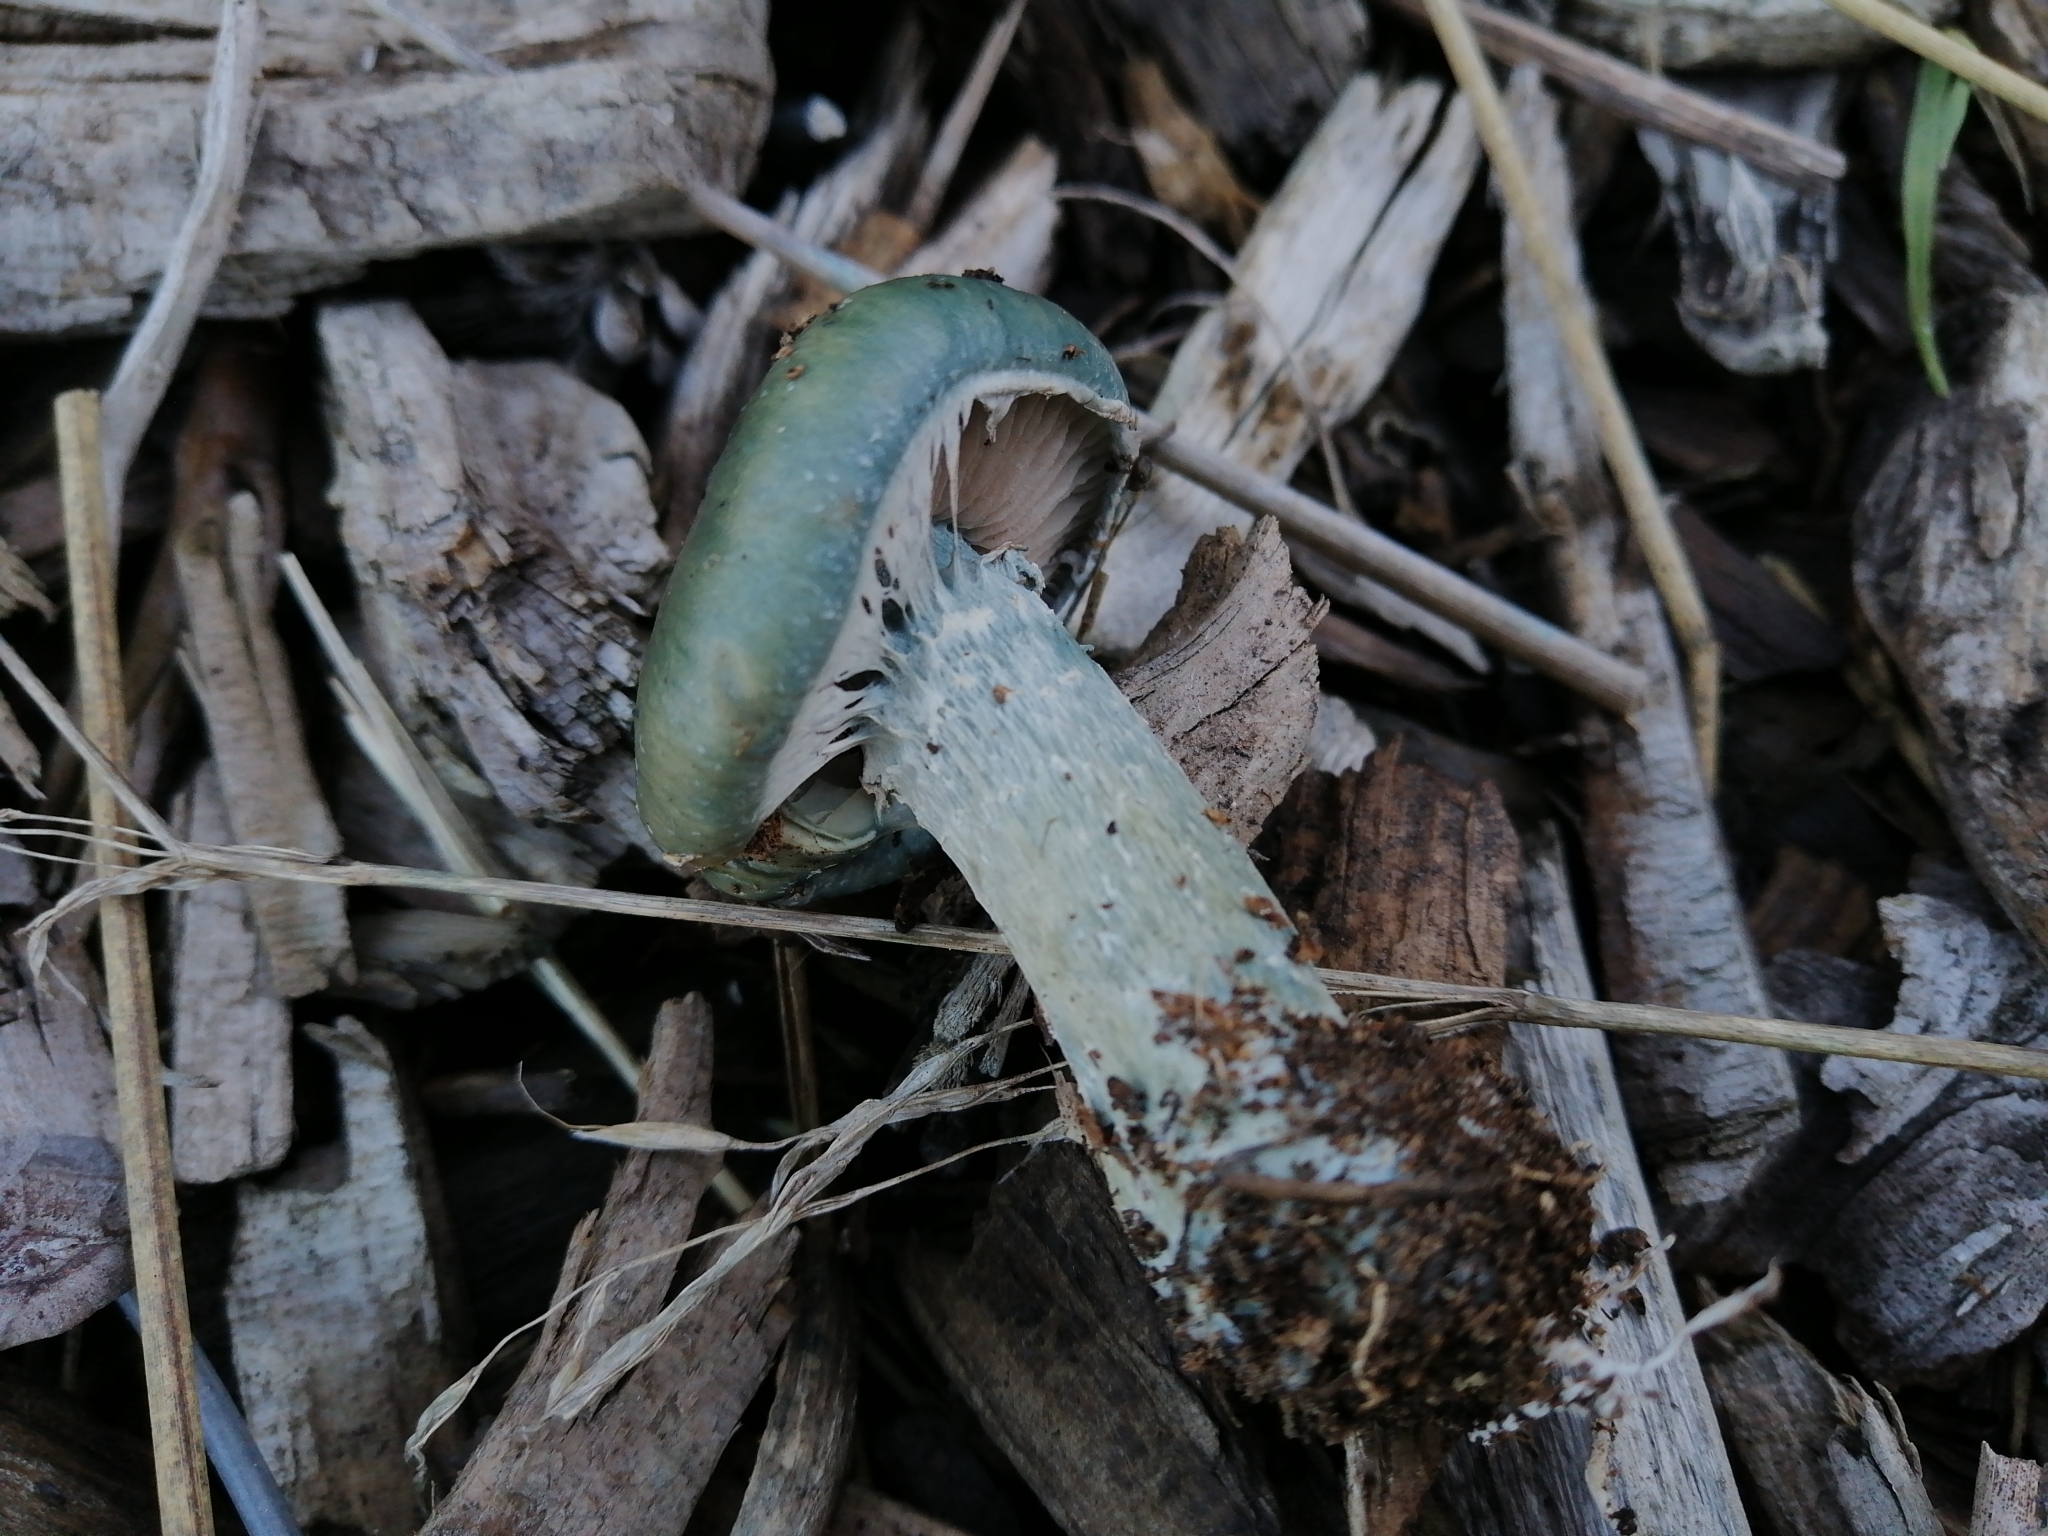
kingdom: Fungi
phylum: Basidiomycota
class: Agaricomycetes
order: Agaricales
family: Strophariaceae
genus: Stropharia
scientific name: Stropharia caerulea
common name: Blue roundhead
